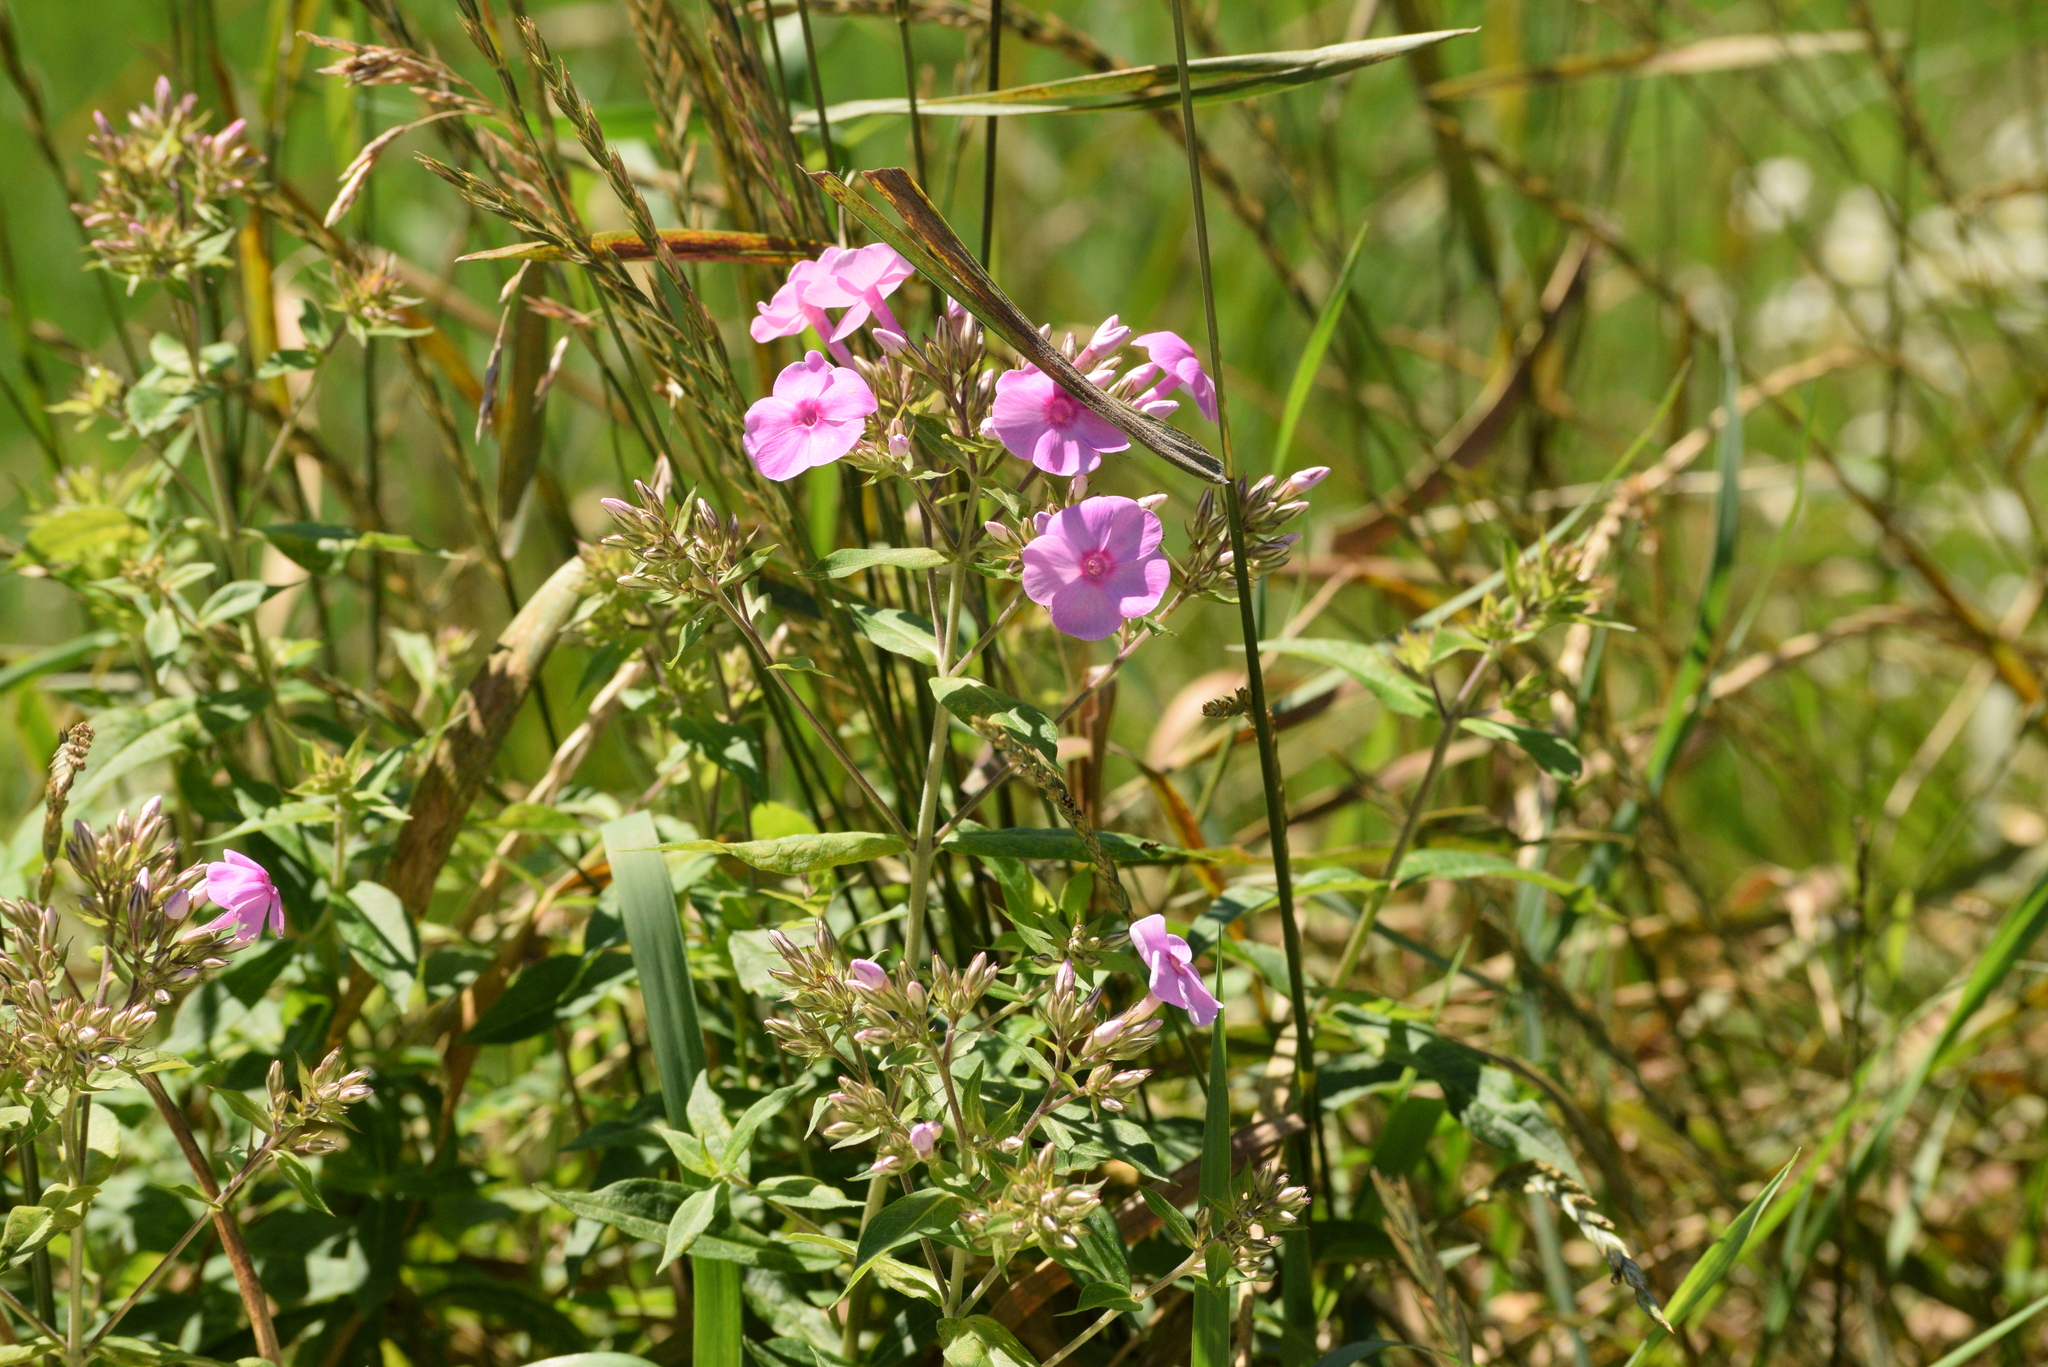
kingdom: Plantae
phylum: Tracheophyta
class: Magnoliopsida
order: Ericales
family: Polemoniaceae
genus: Phlox
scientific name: Phlox paniculata
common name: Fall phlox
